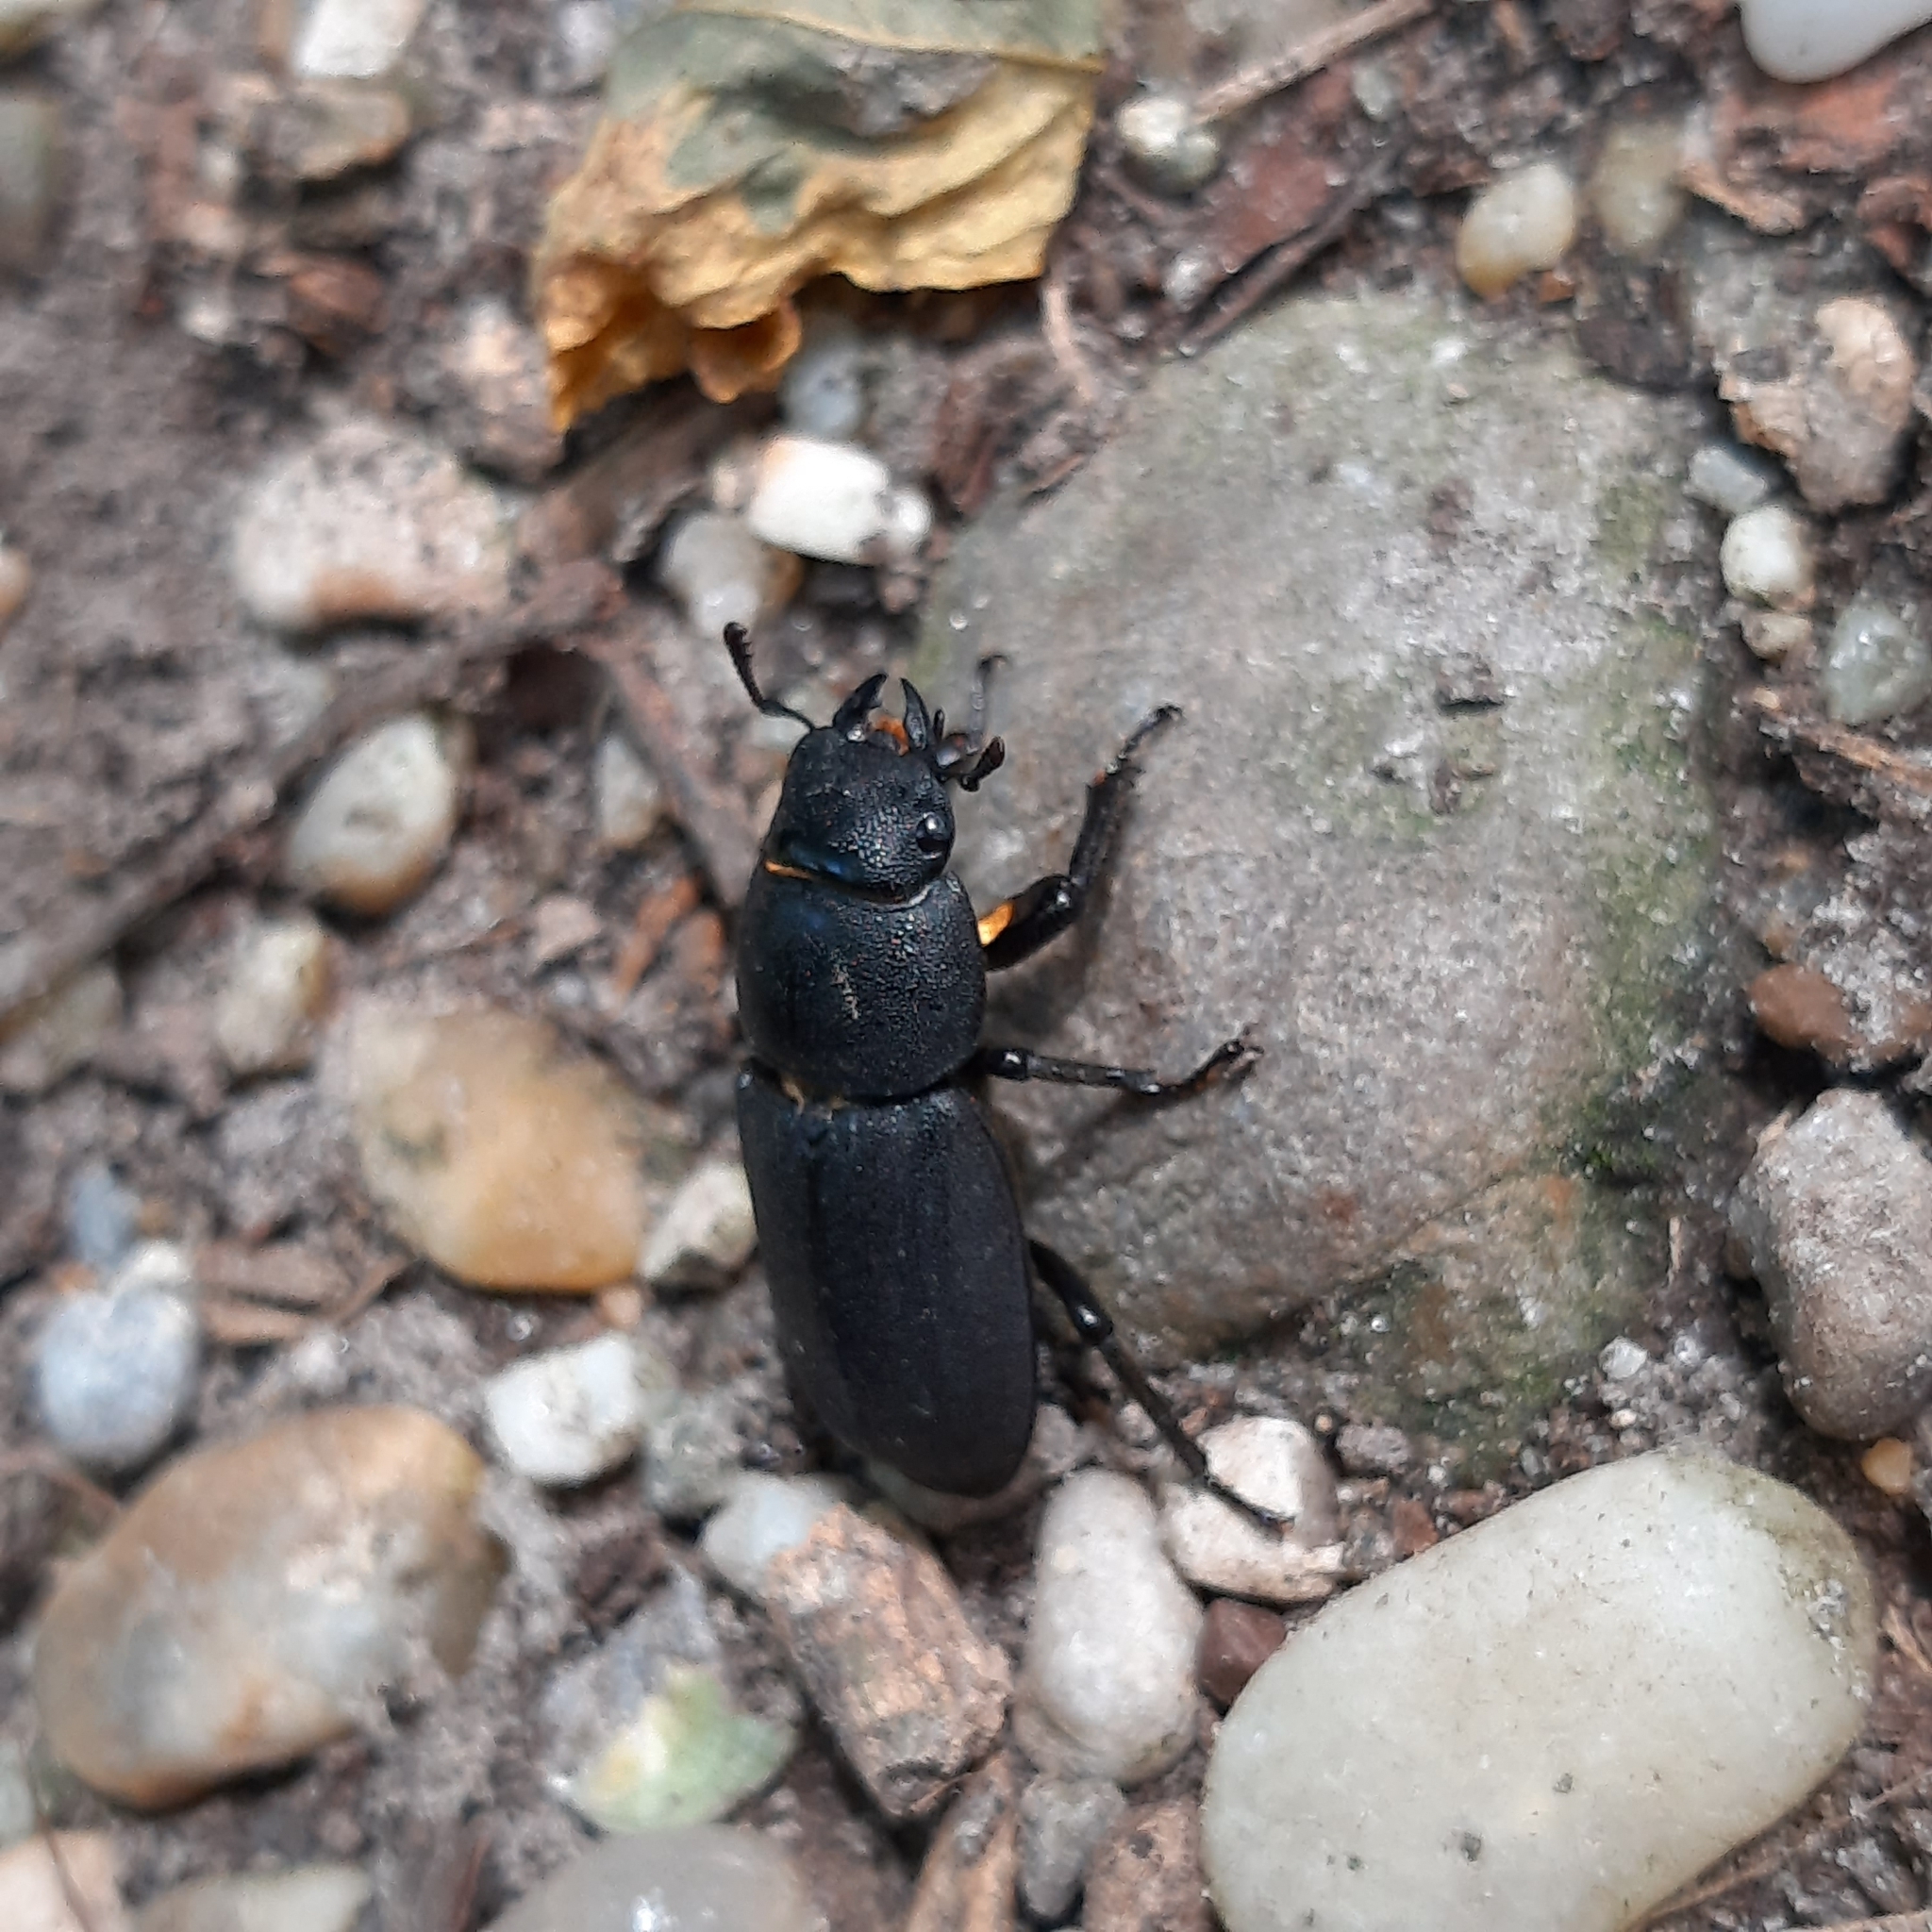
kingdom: Animalia
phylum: Arthropoda
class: Insecta
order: Coleoptera
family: Lucanidae
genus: Dorcus
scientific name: Dorcus parallelipipedus
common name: Lesser stag beetle
